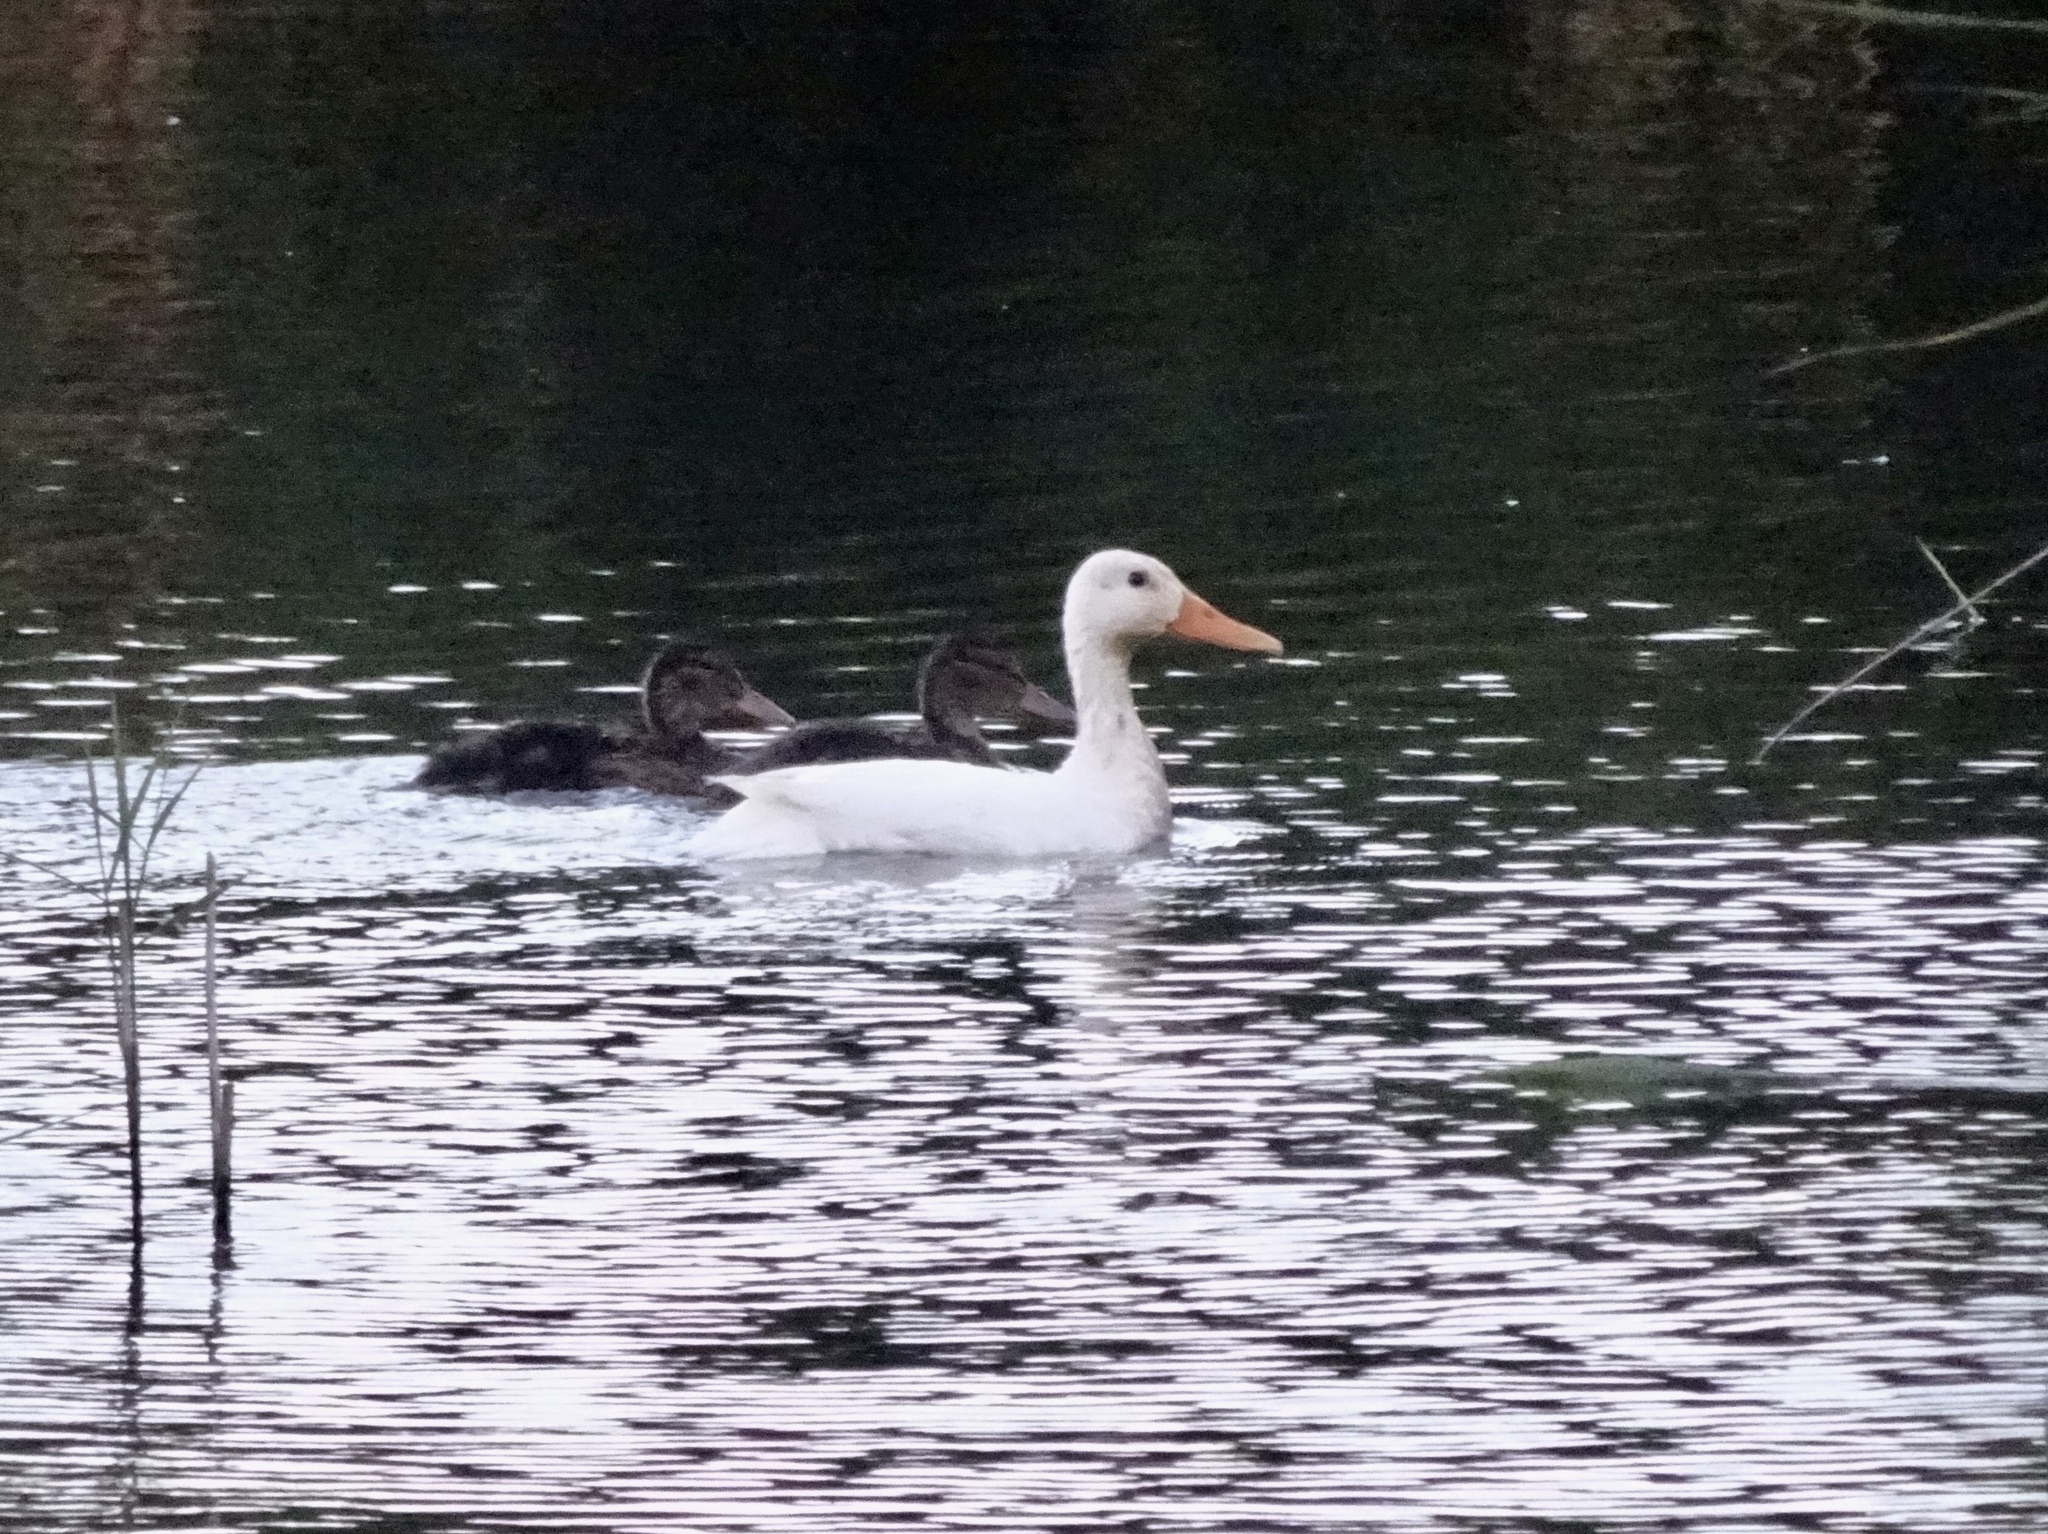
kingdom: Animalia
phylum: Chordata
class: Aves
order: Anseriformes
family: Anatidae
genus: Anas
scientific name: Anas platyrhynchos
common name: Mallard
